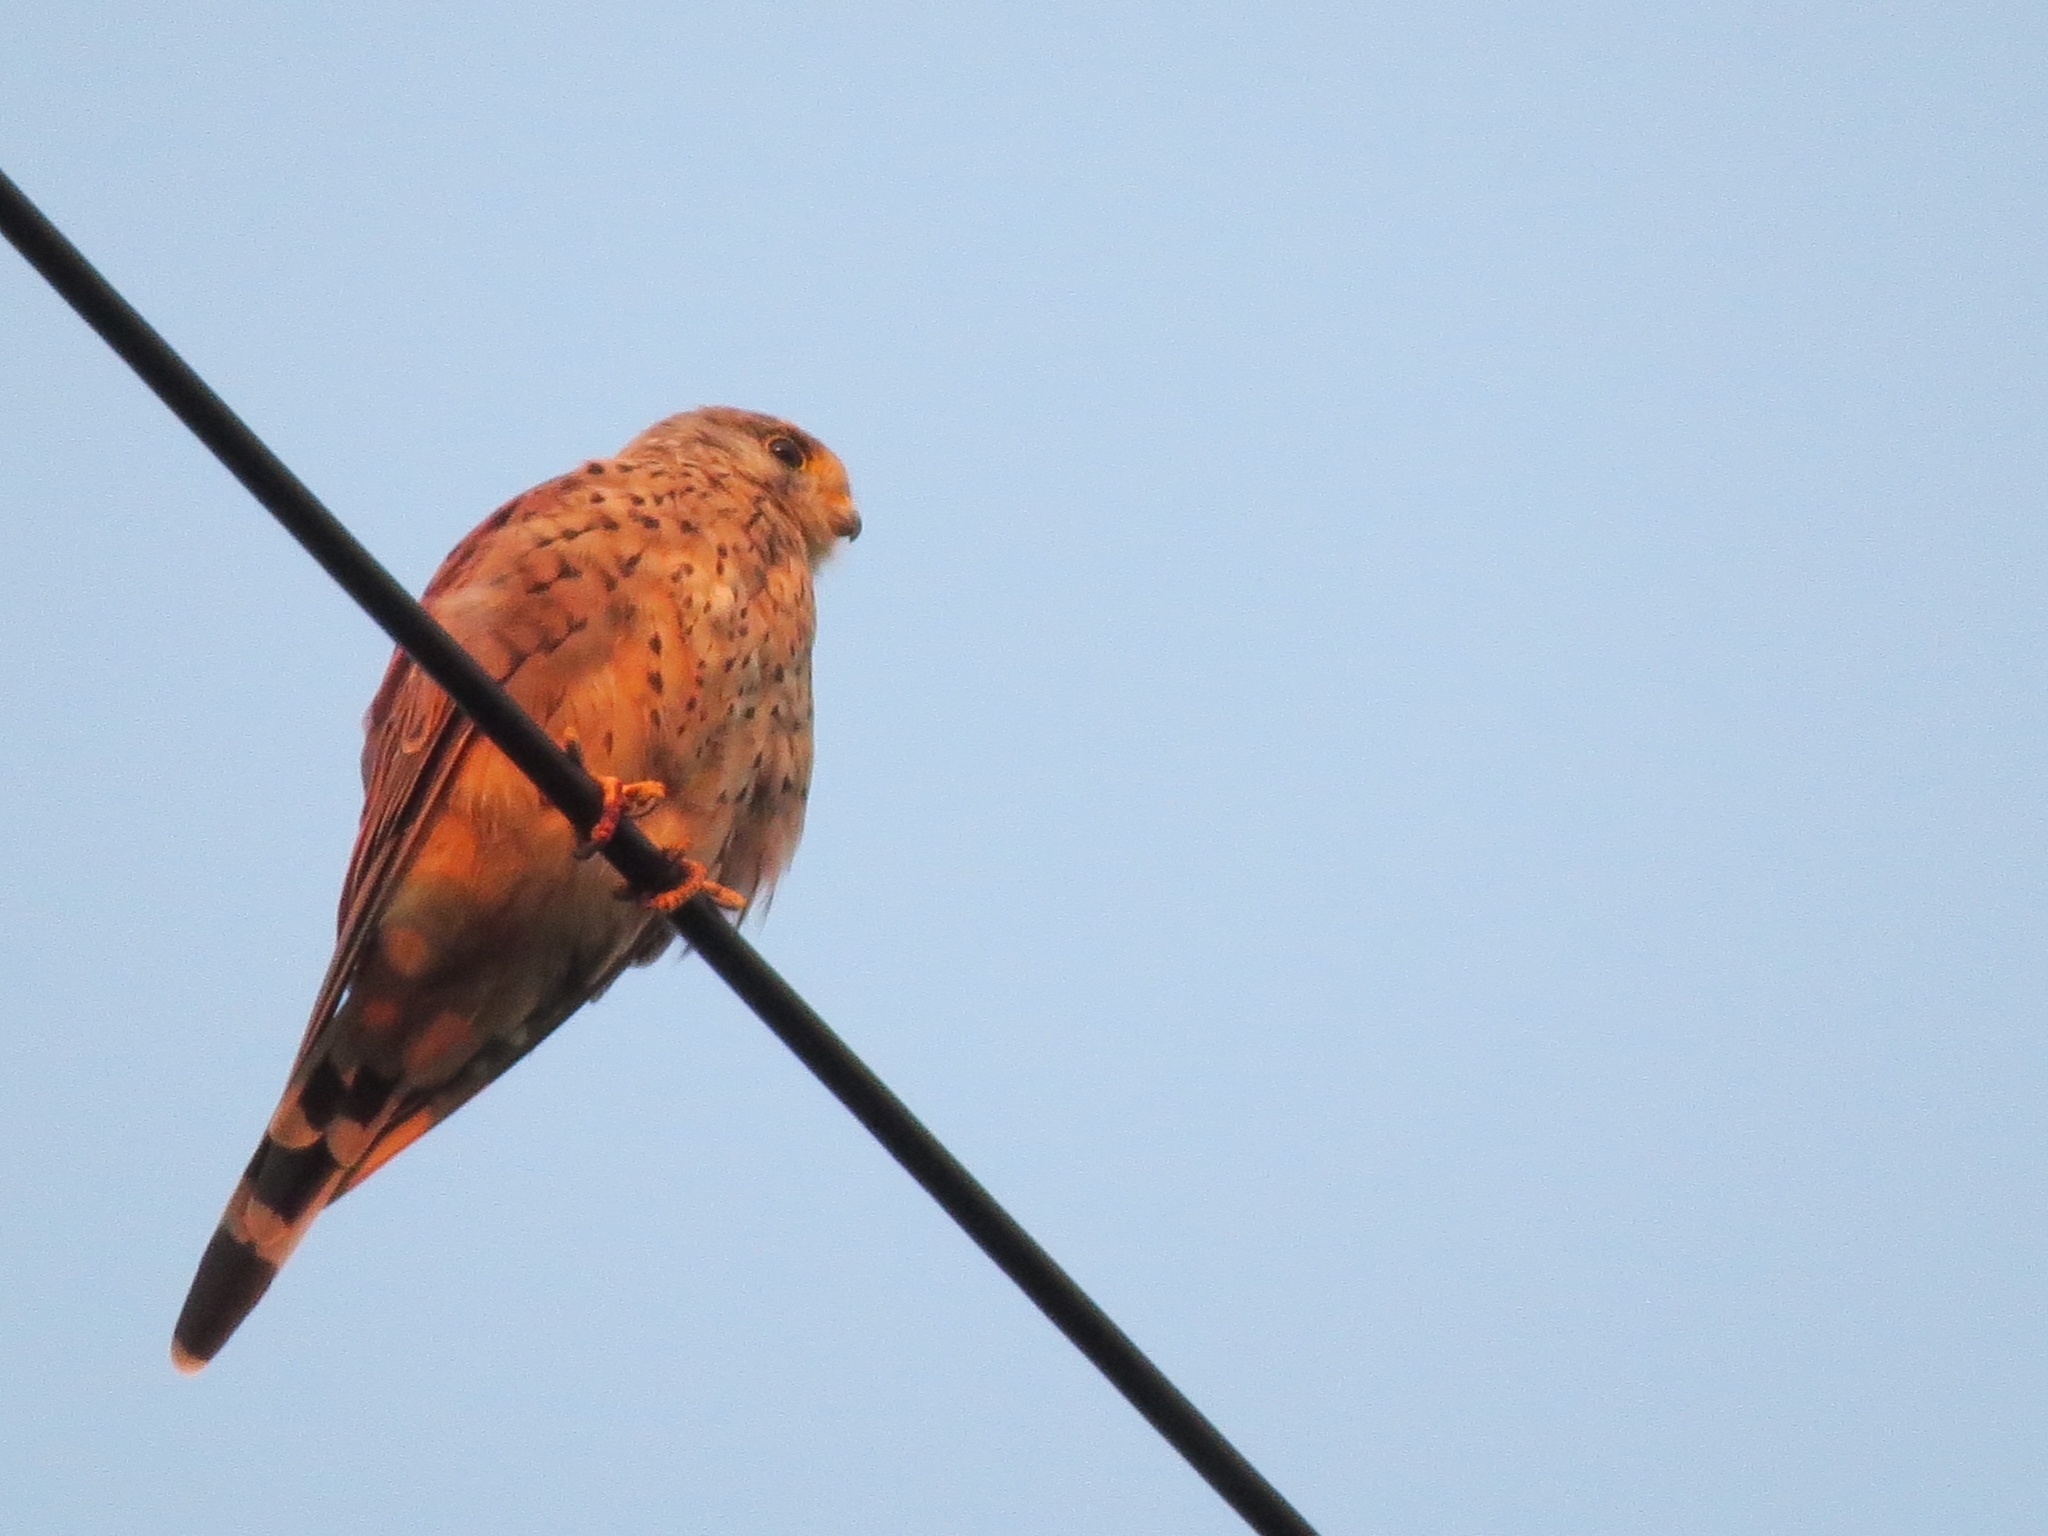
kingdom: Animalia
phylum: Chordata
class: Aves
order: Falconiformes
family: Falconidae
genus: Falco
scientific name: Falco tinnunculus
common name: Common kestrel
